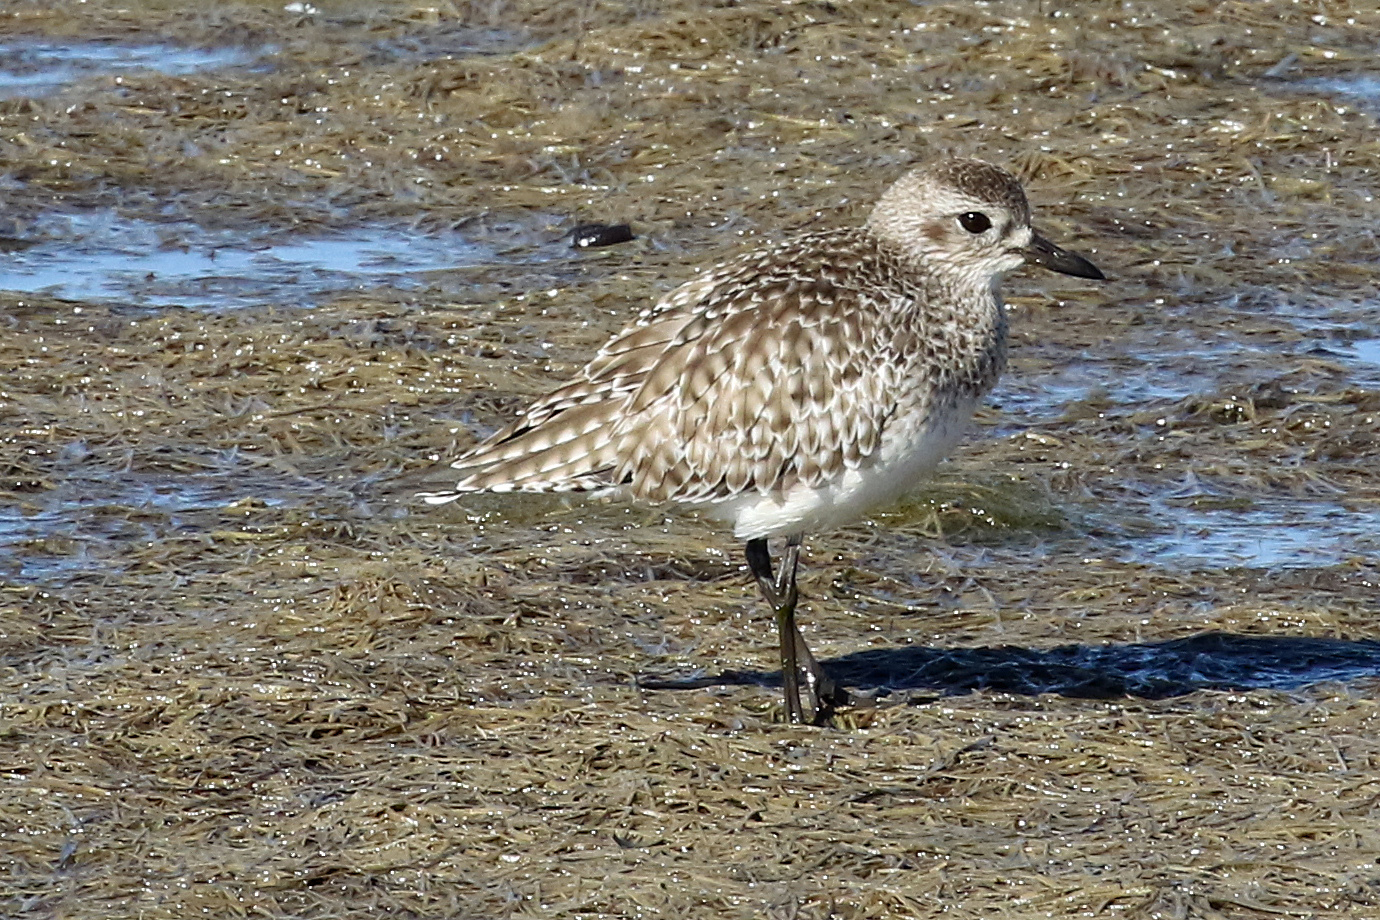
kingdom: Animalia
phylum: Chordata
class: Aves
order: Charadriiformes
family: Charadriidae
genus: Pluvialis
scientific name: Pluvialis squatarola
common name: Grey plover
